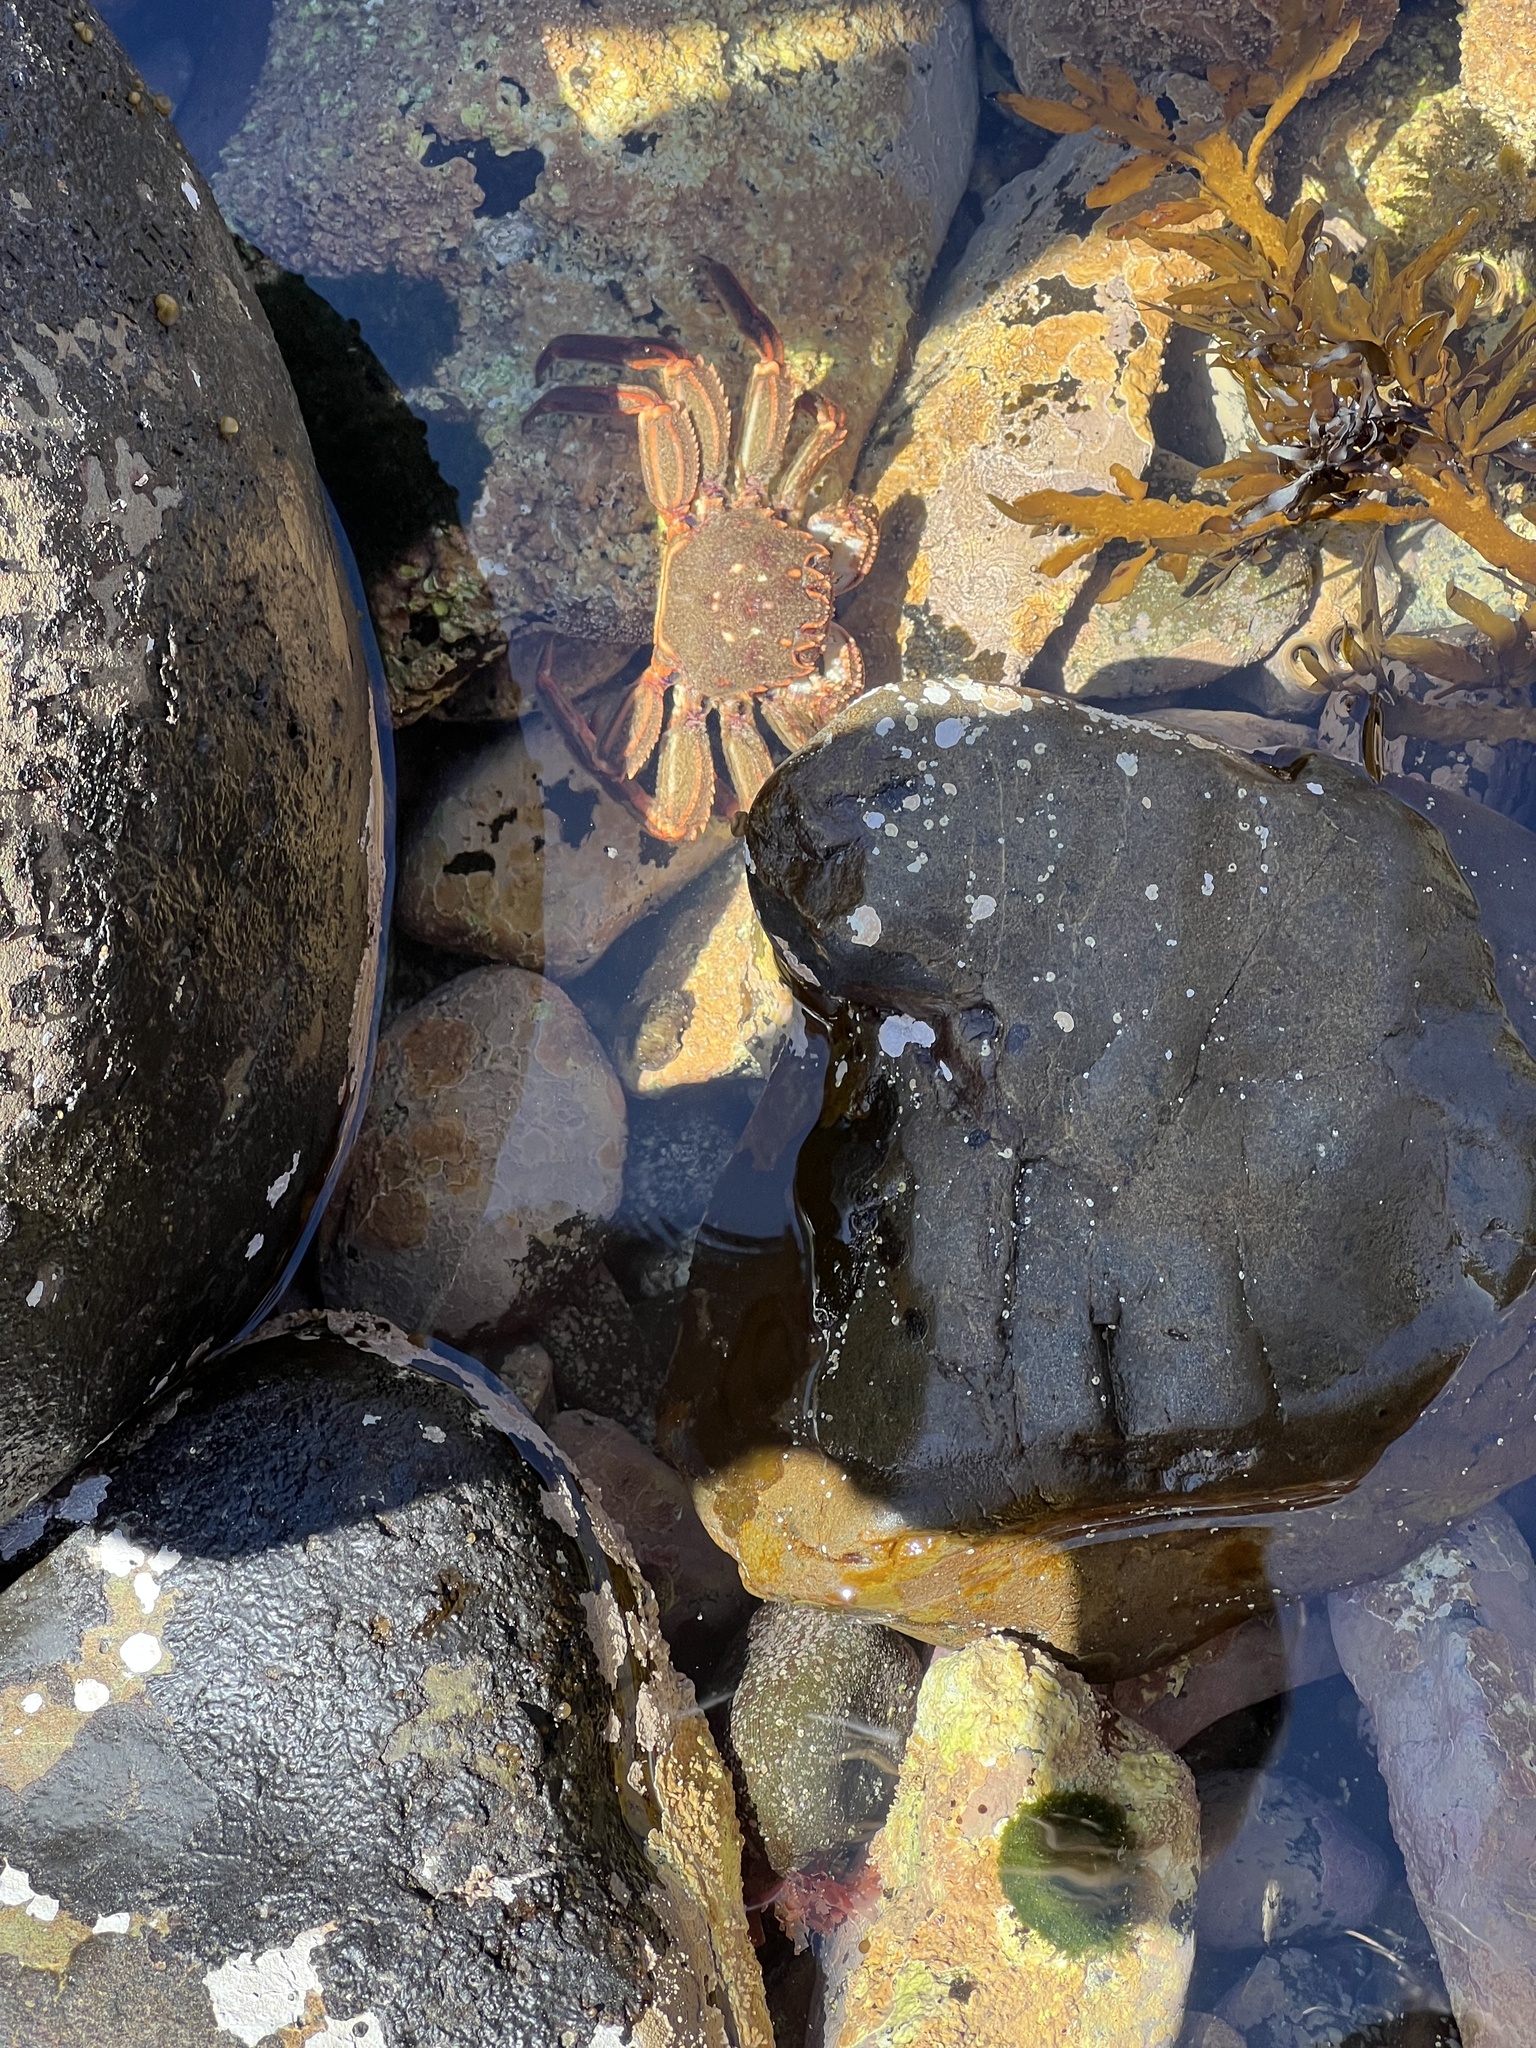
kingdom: Animalia
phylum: Arthropoda
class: Malacostraca
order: Decapoda
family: Plagusiidae
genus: Guinusia
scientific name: Guinusia chabrus
